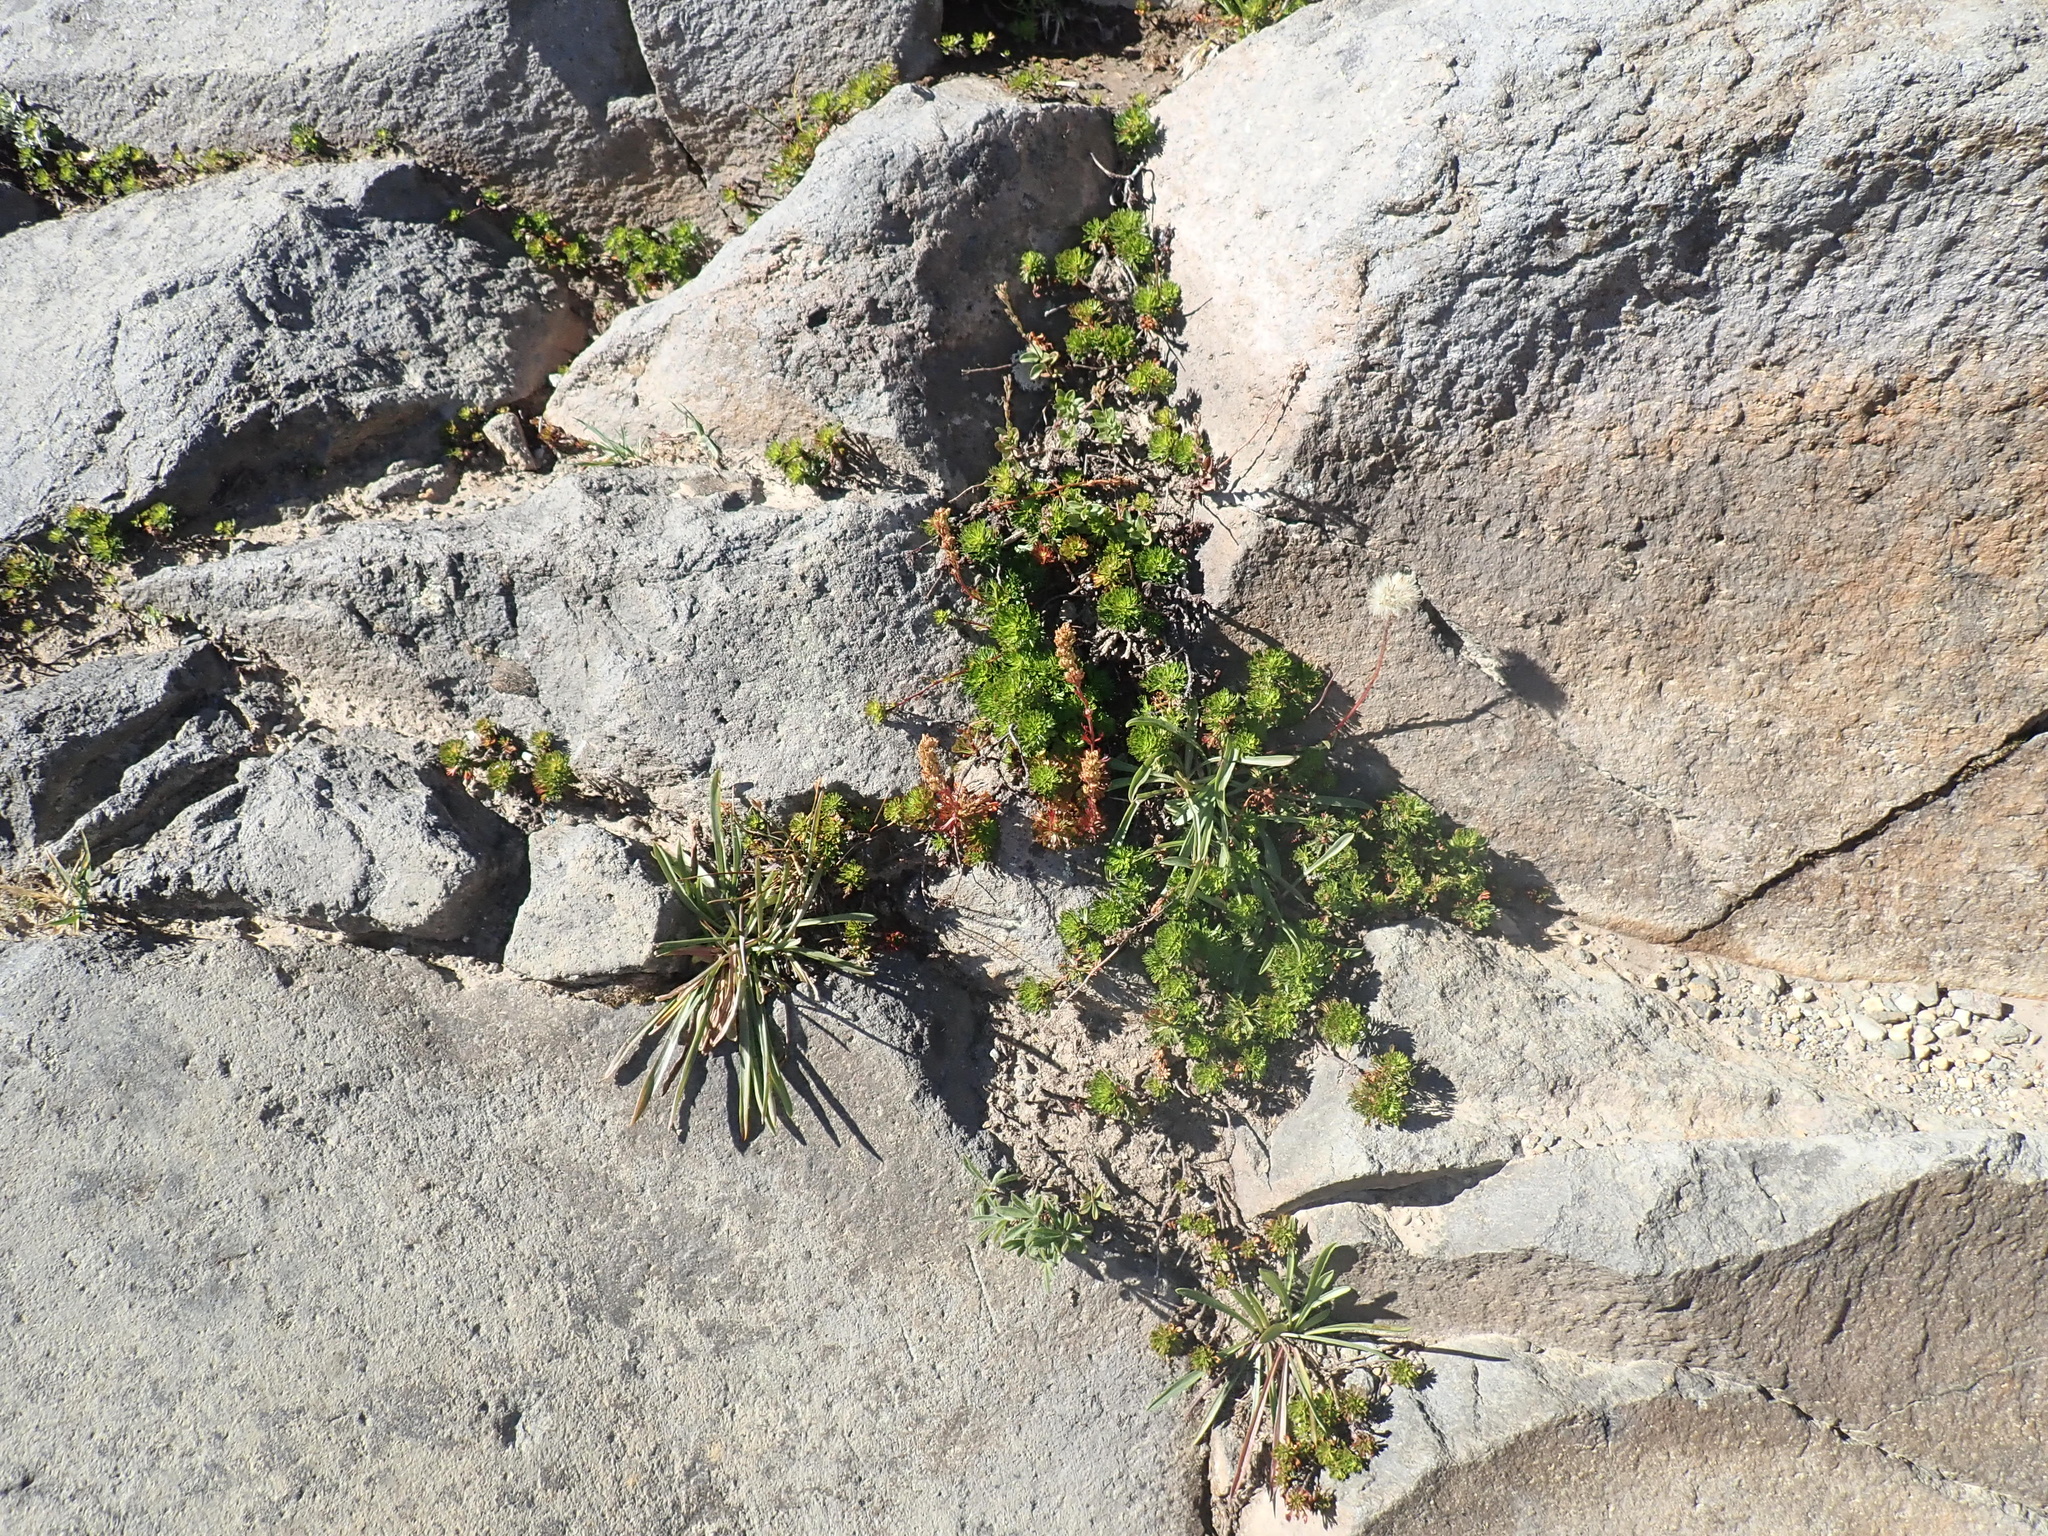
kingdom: Plantae
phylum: Tracheophyta
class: Magnoliopsida
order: Rosales
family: Rosaceae
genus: Luetkea
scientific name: Luetkea pectinata
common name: Partridgefoot
